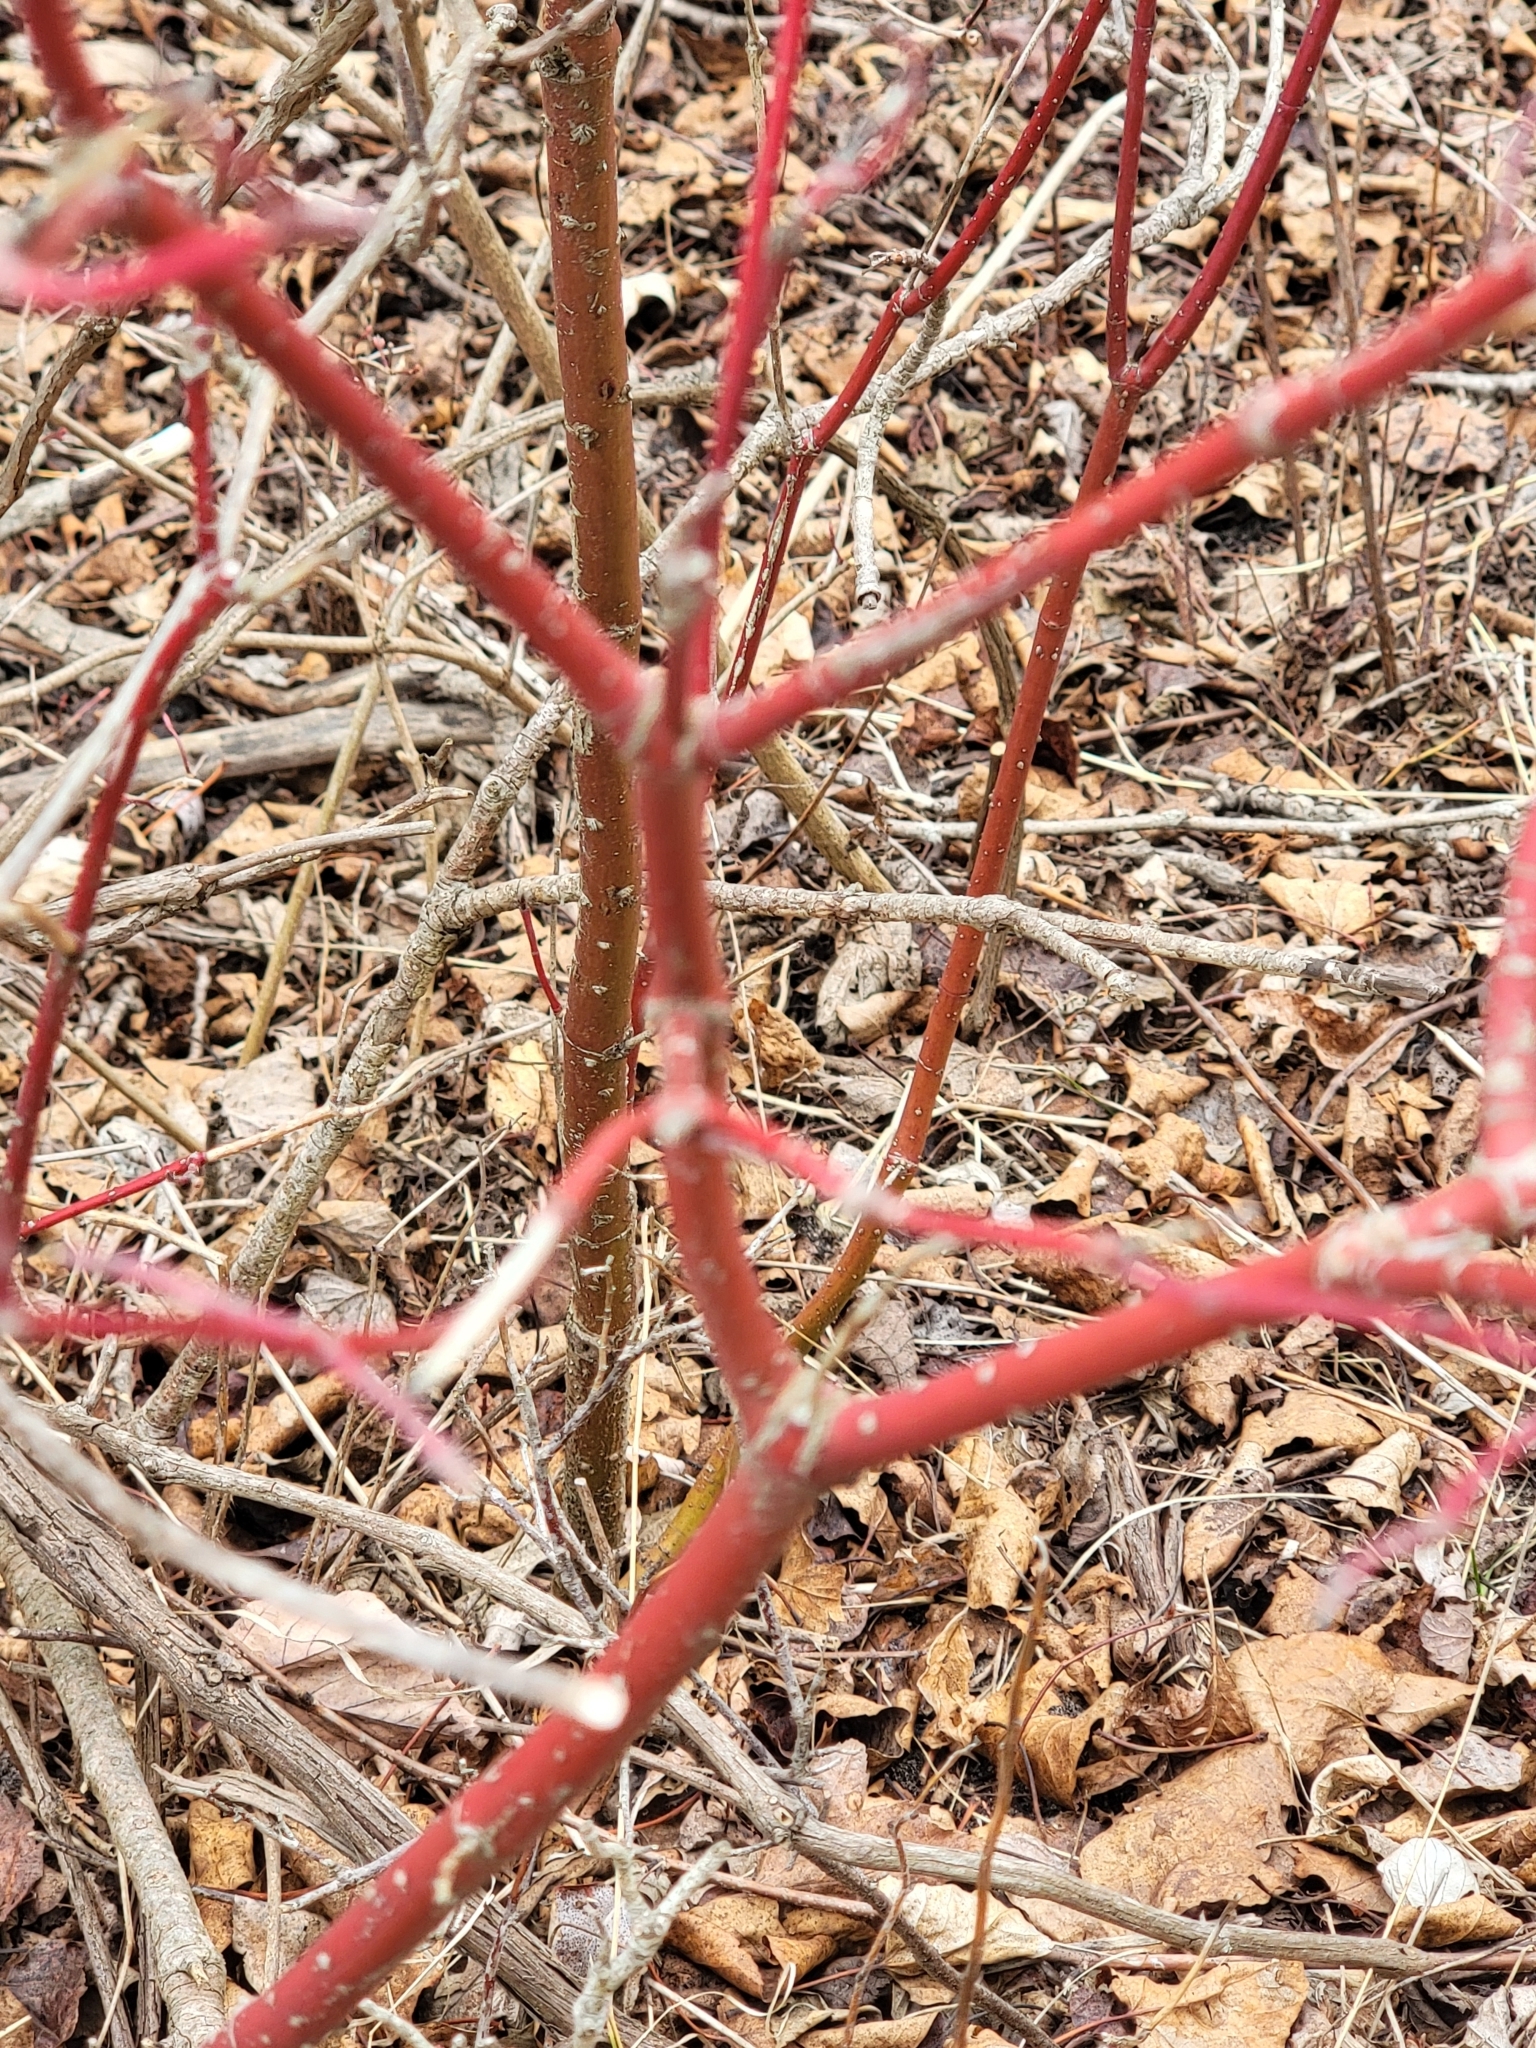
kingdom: Plantae
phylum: Tracheophyta
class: Magnoliopsida
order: Cornales
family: Cornaceae
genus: Cornus
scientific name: Cornus sericea
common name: Red-osier dogwood
